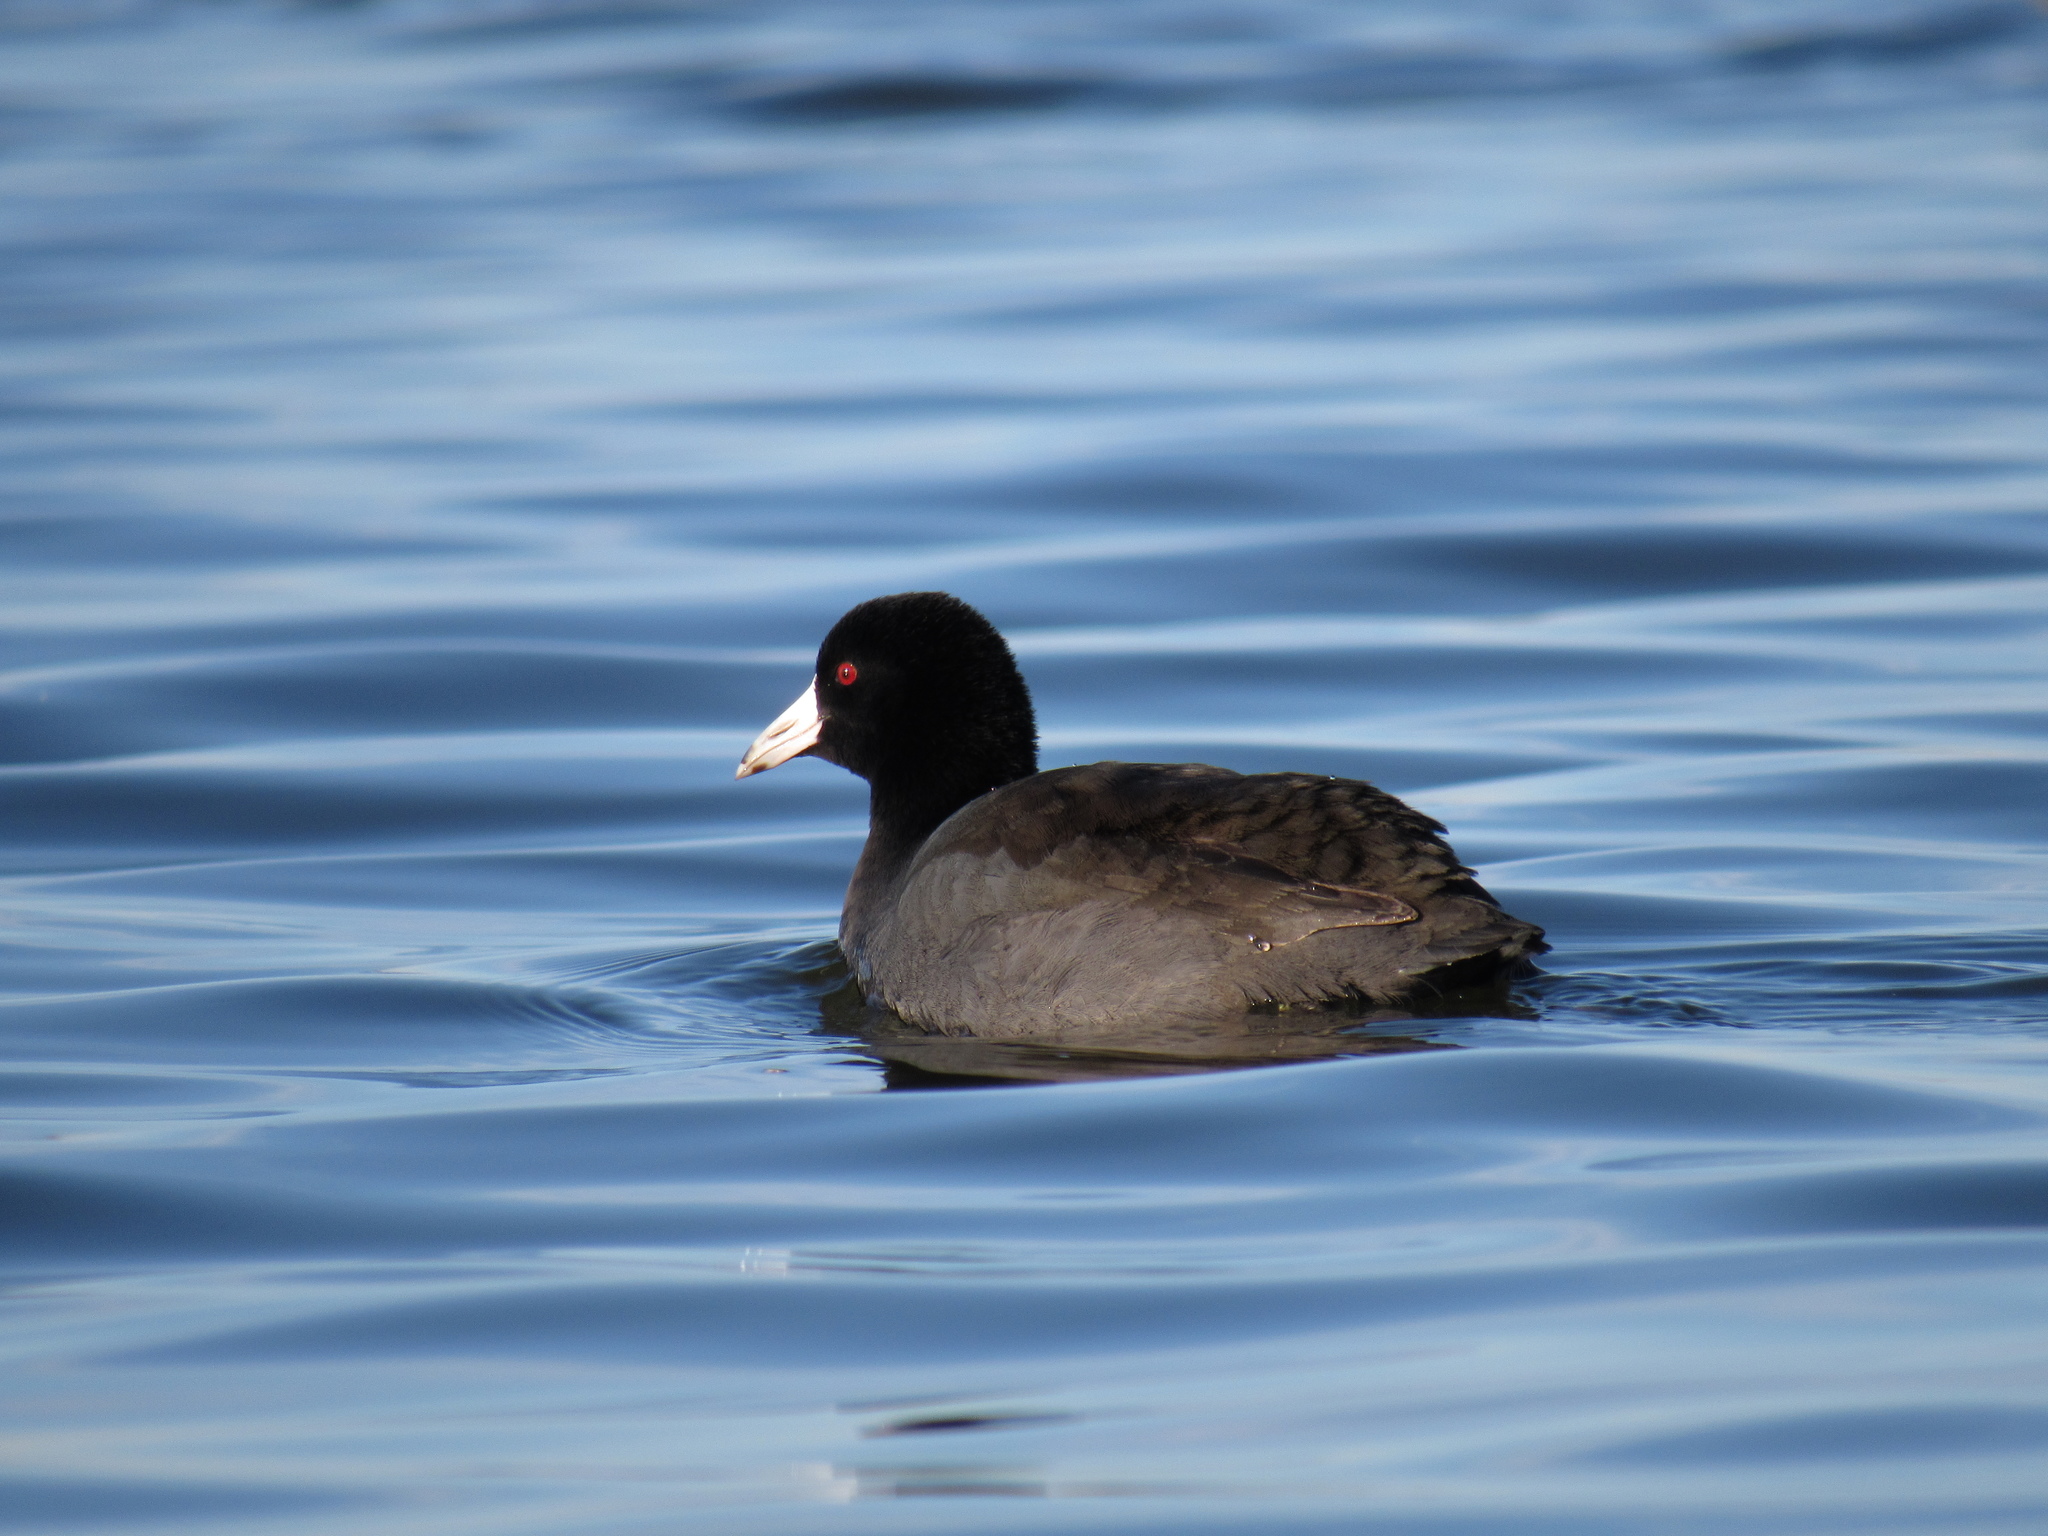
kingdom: Animalia
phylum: Chordata
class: Aves
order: Gruiformes
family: Rallidae
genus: Fulica
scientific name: Fulica americana
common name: American coot
